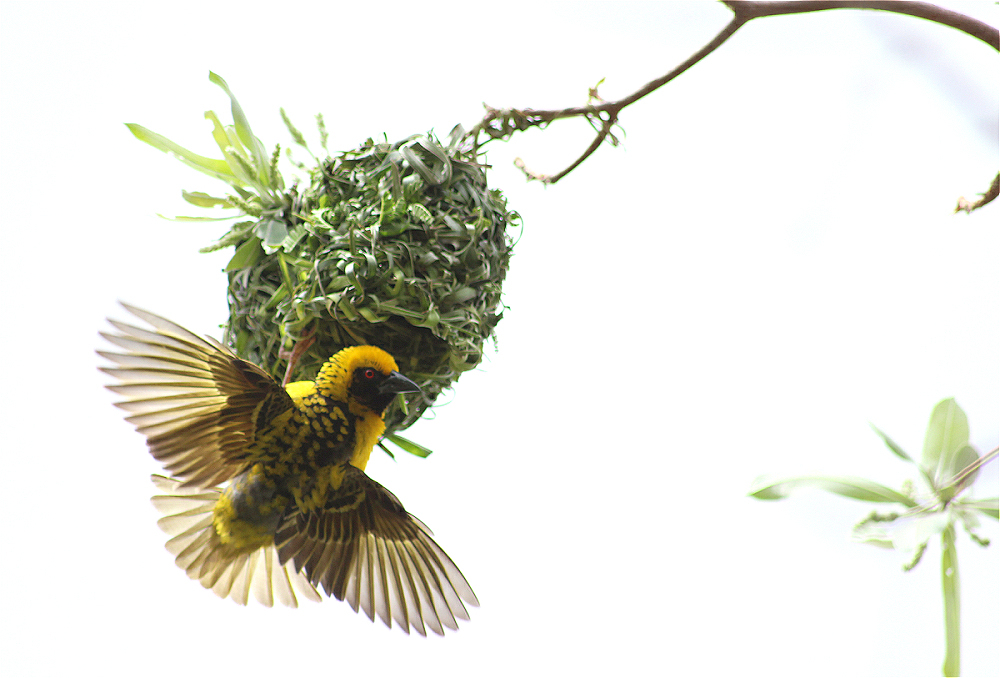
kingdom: Animalia
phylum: Chordata
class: Aves
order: Passeriformes
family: Ploceidae
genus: Ploceus
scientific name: Ploceus cucullatus
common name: Village weaver
